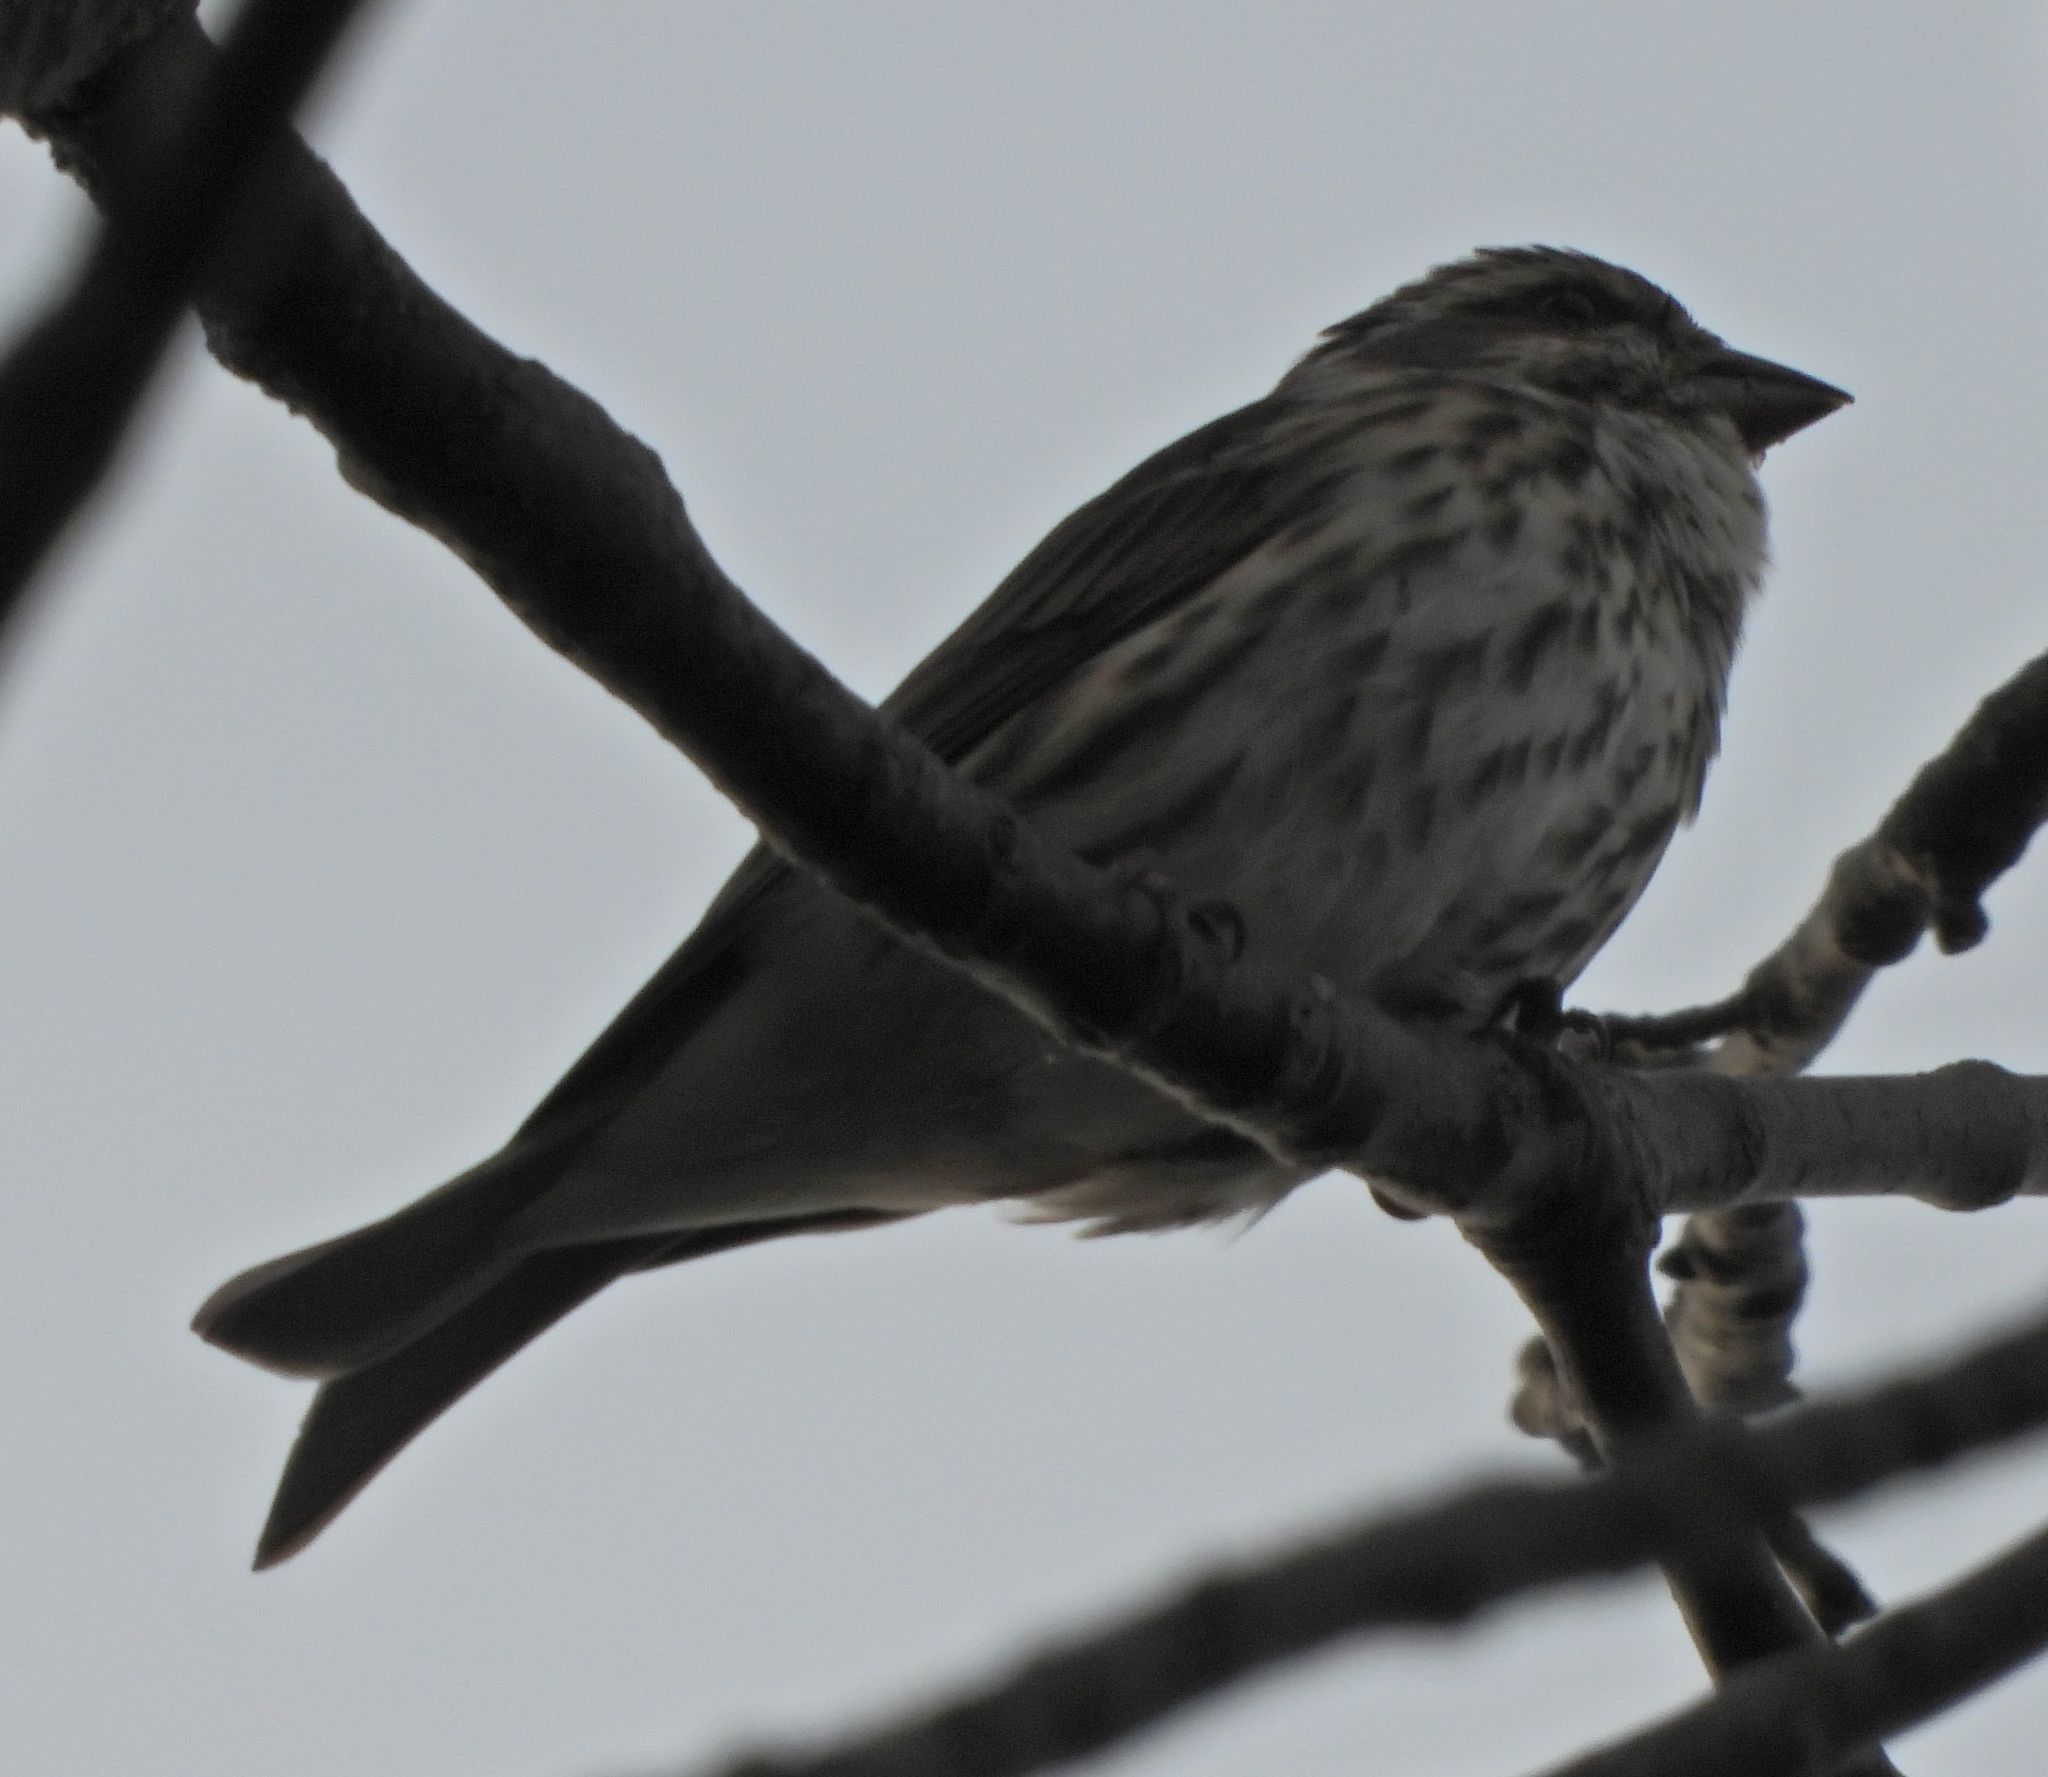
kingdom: Animalia
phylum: Chordata
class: Aves
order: Passeriformes
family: Fringillidae
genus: Haemorhous
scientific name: Haemorhous purpureus
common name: Purple finch
